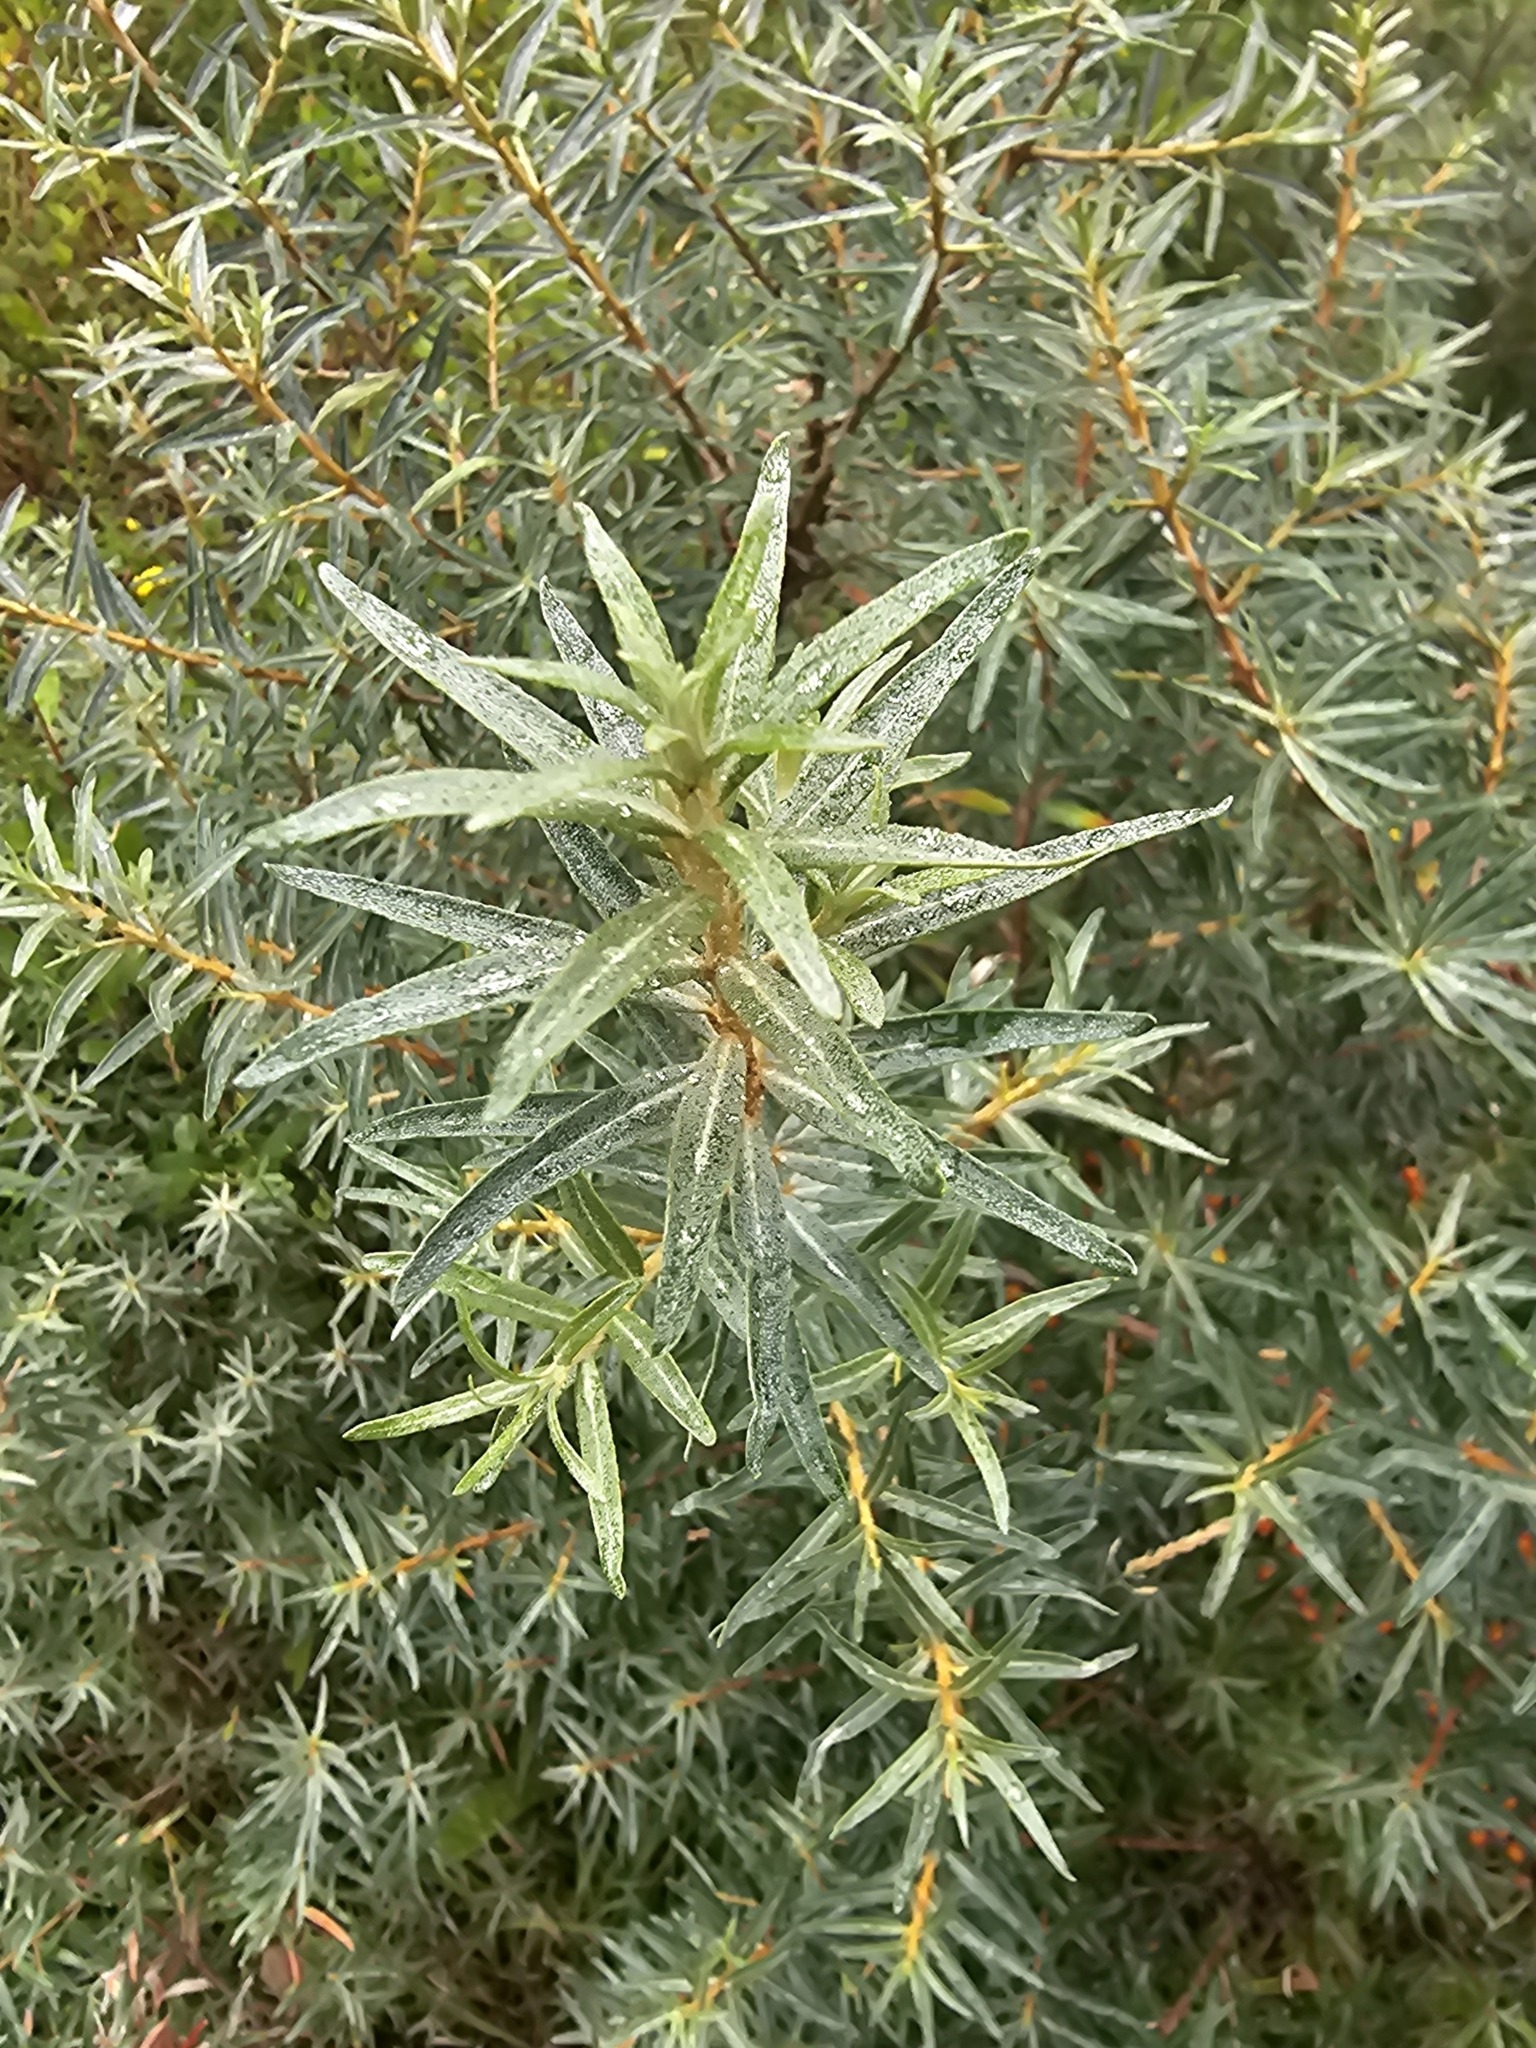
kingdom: Plantae
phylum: Tracheophyta
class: Magnoliopsida
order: Rosales
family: Elaeagnaceae
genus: Hippophae
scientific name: Hippophae rhamnoides
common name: Sea-buckthorn
